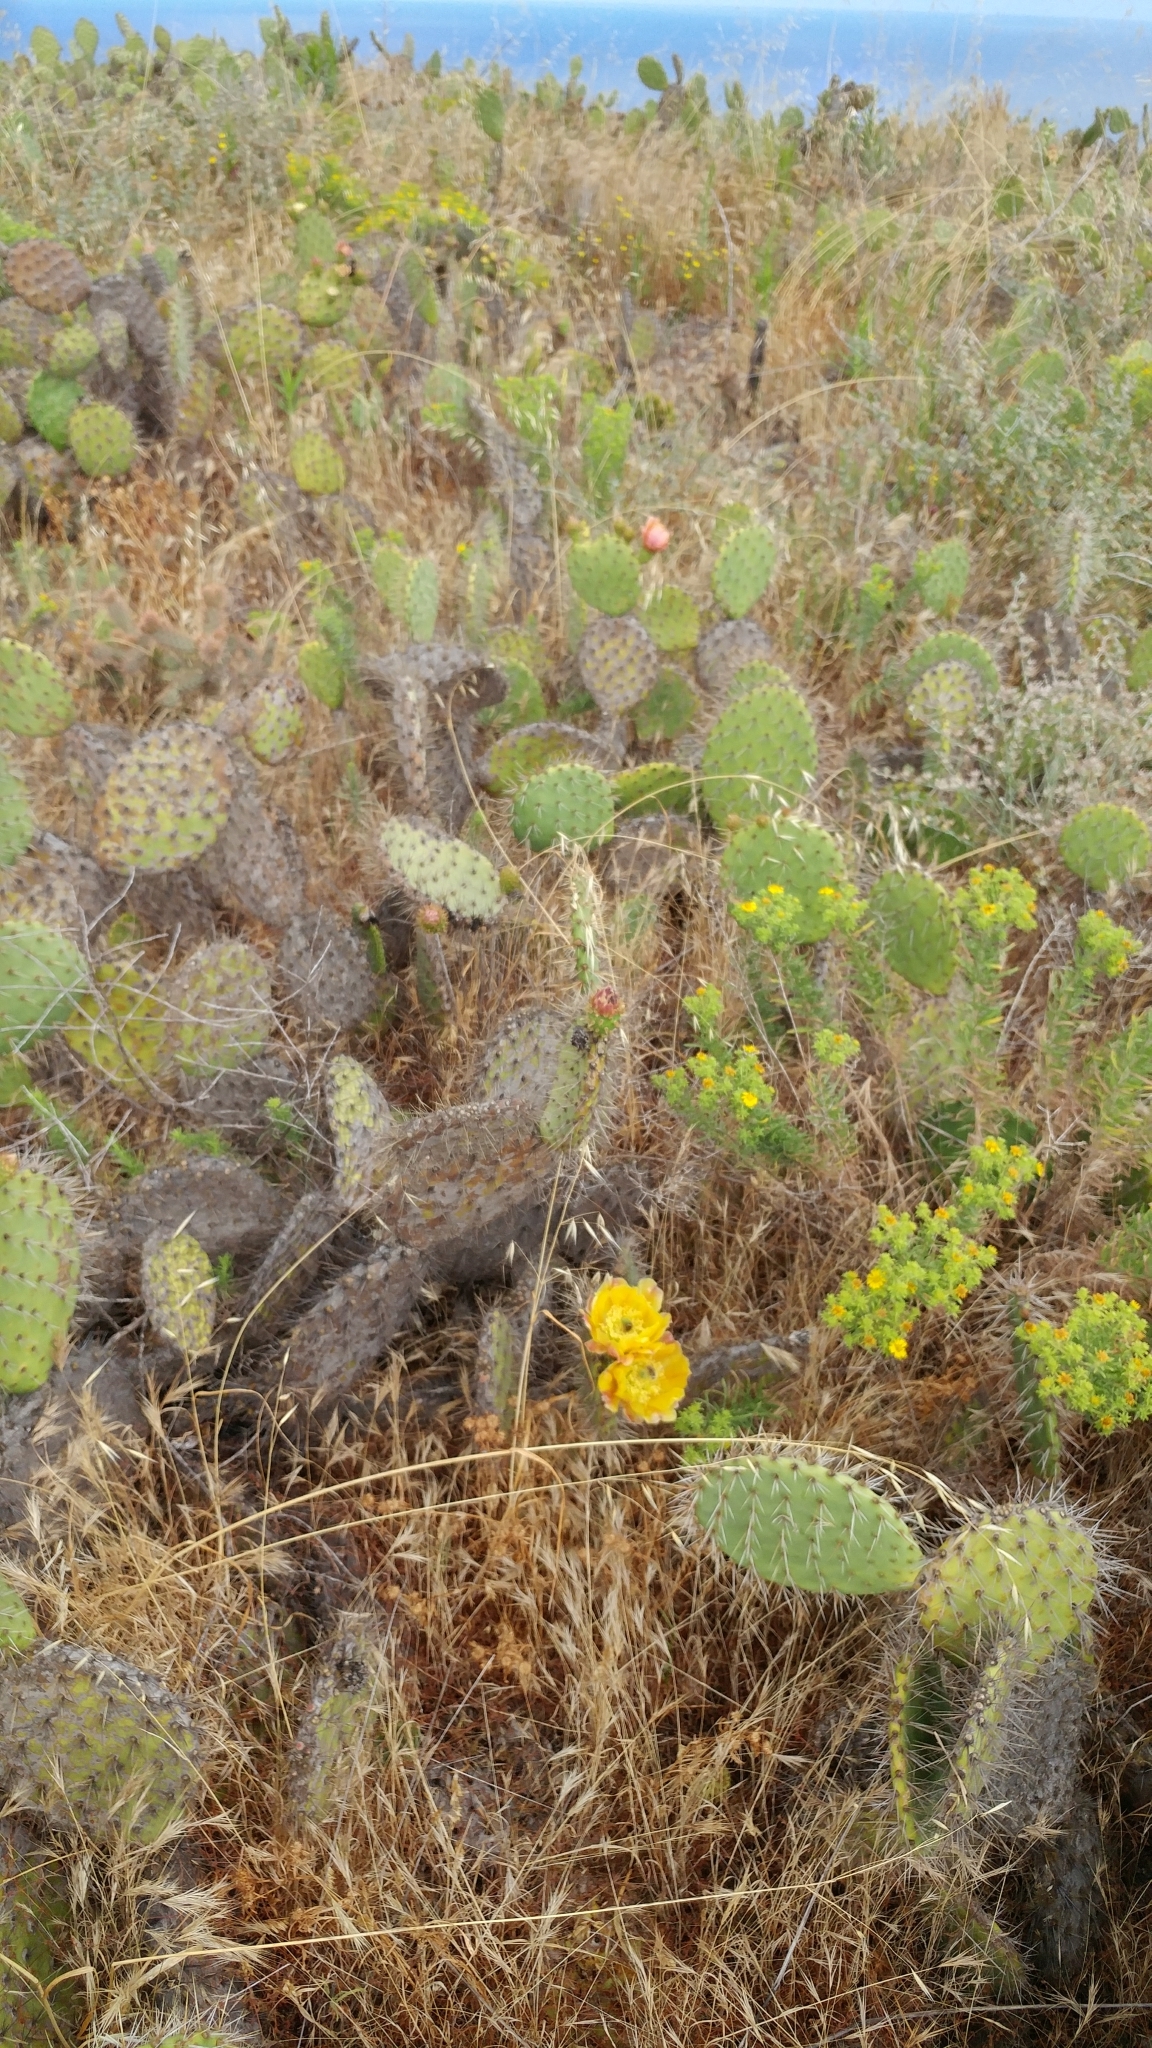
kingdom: Plantae
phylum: Tracheophyta
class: Magnoliopsida
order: Caryophyllales
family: Cactaceae
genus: Opuntia
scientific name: Opuntia littoralis
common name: Coastal prickly-pear
